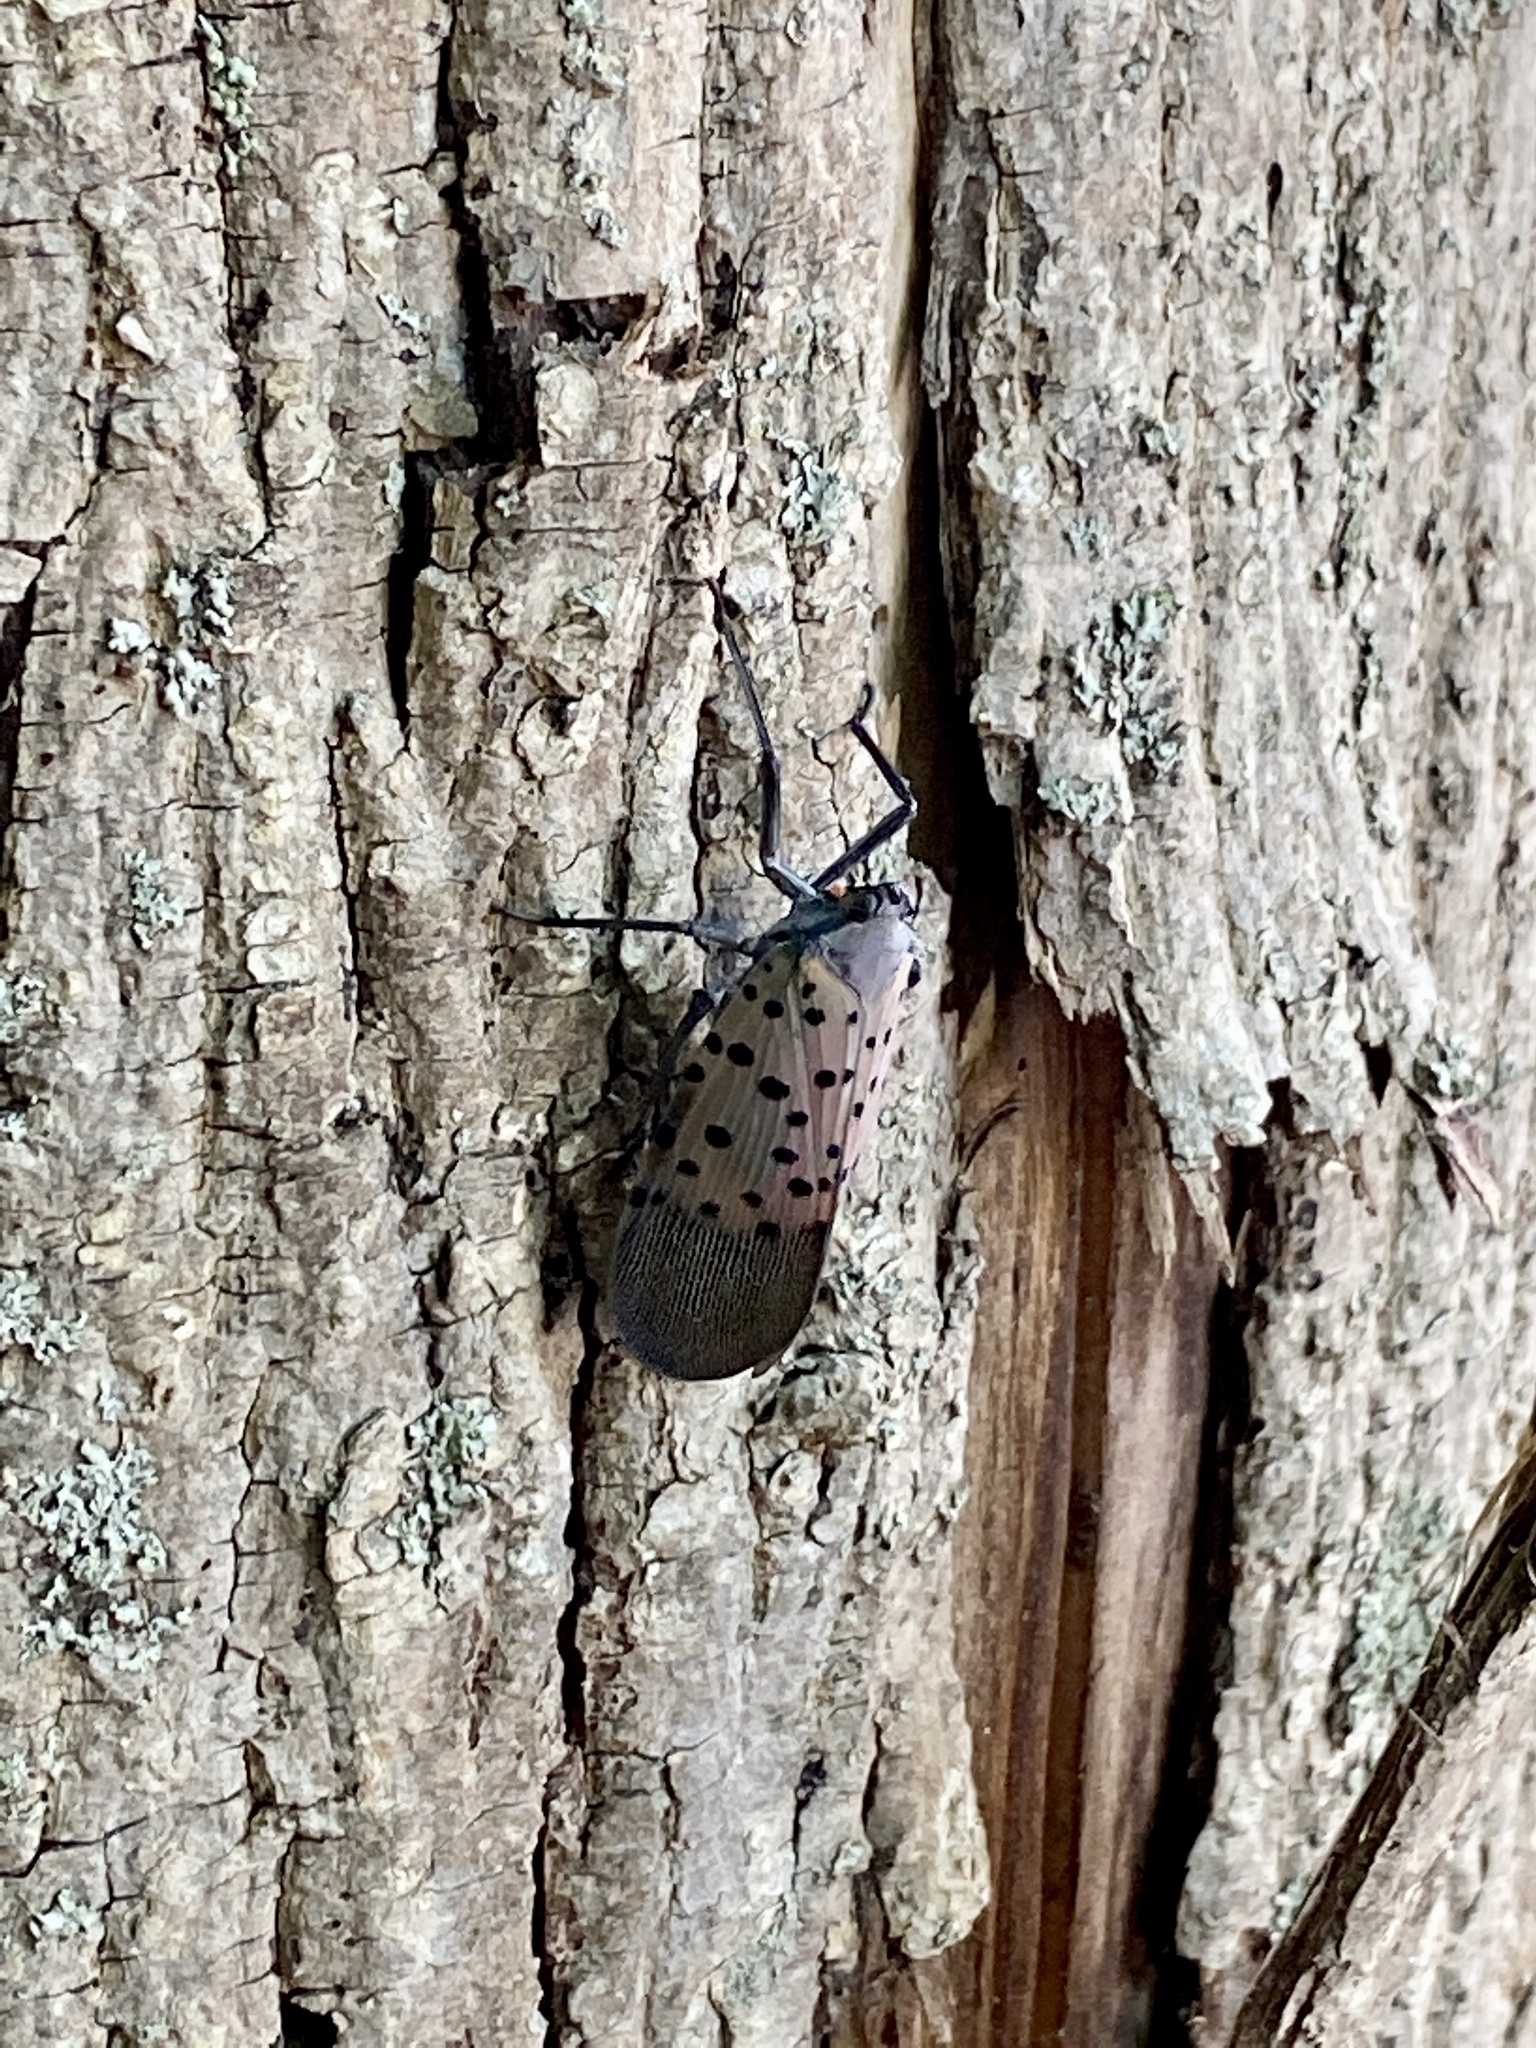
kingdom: Animalia
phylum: Arthropoda
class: Insecta
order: Hemiptera
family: Fulgoridae
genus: Lycorma
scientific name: Lycorma delicatula
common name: Spotted lanternfly
